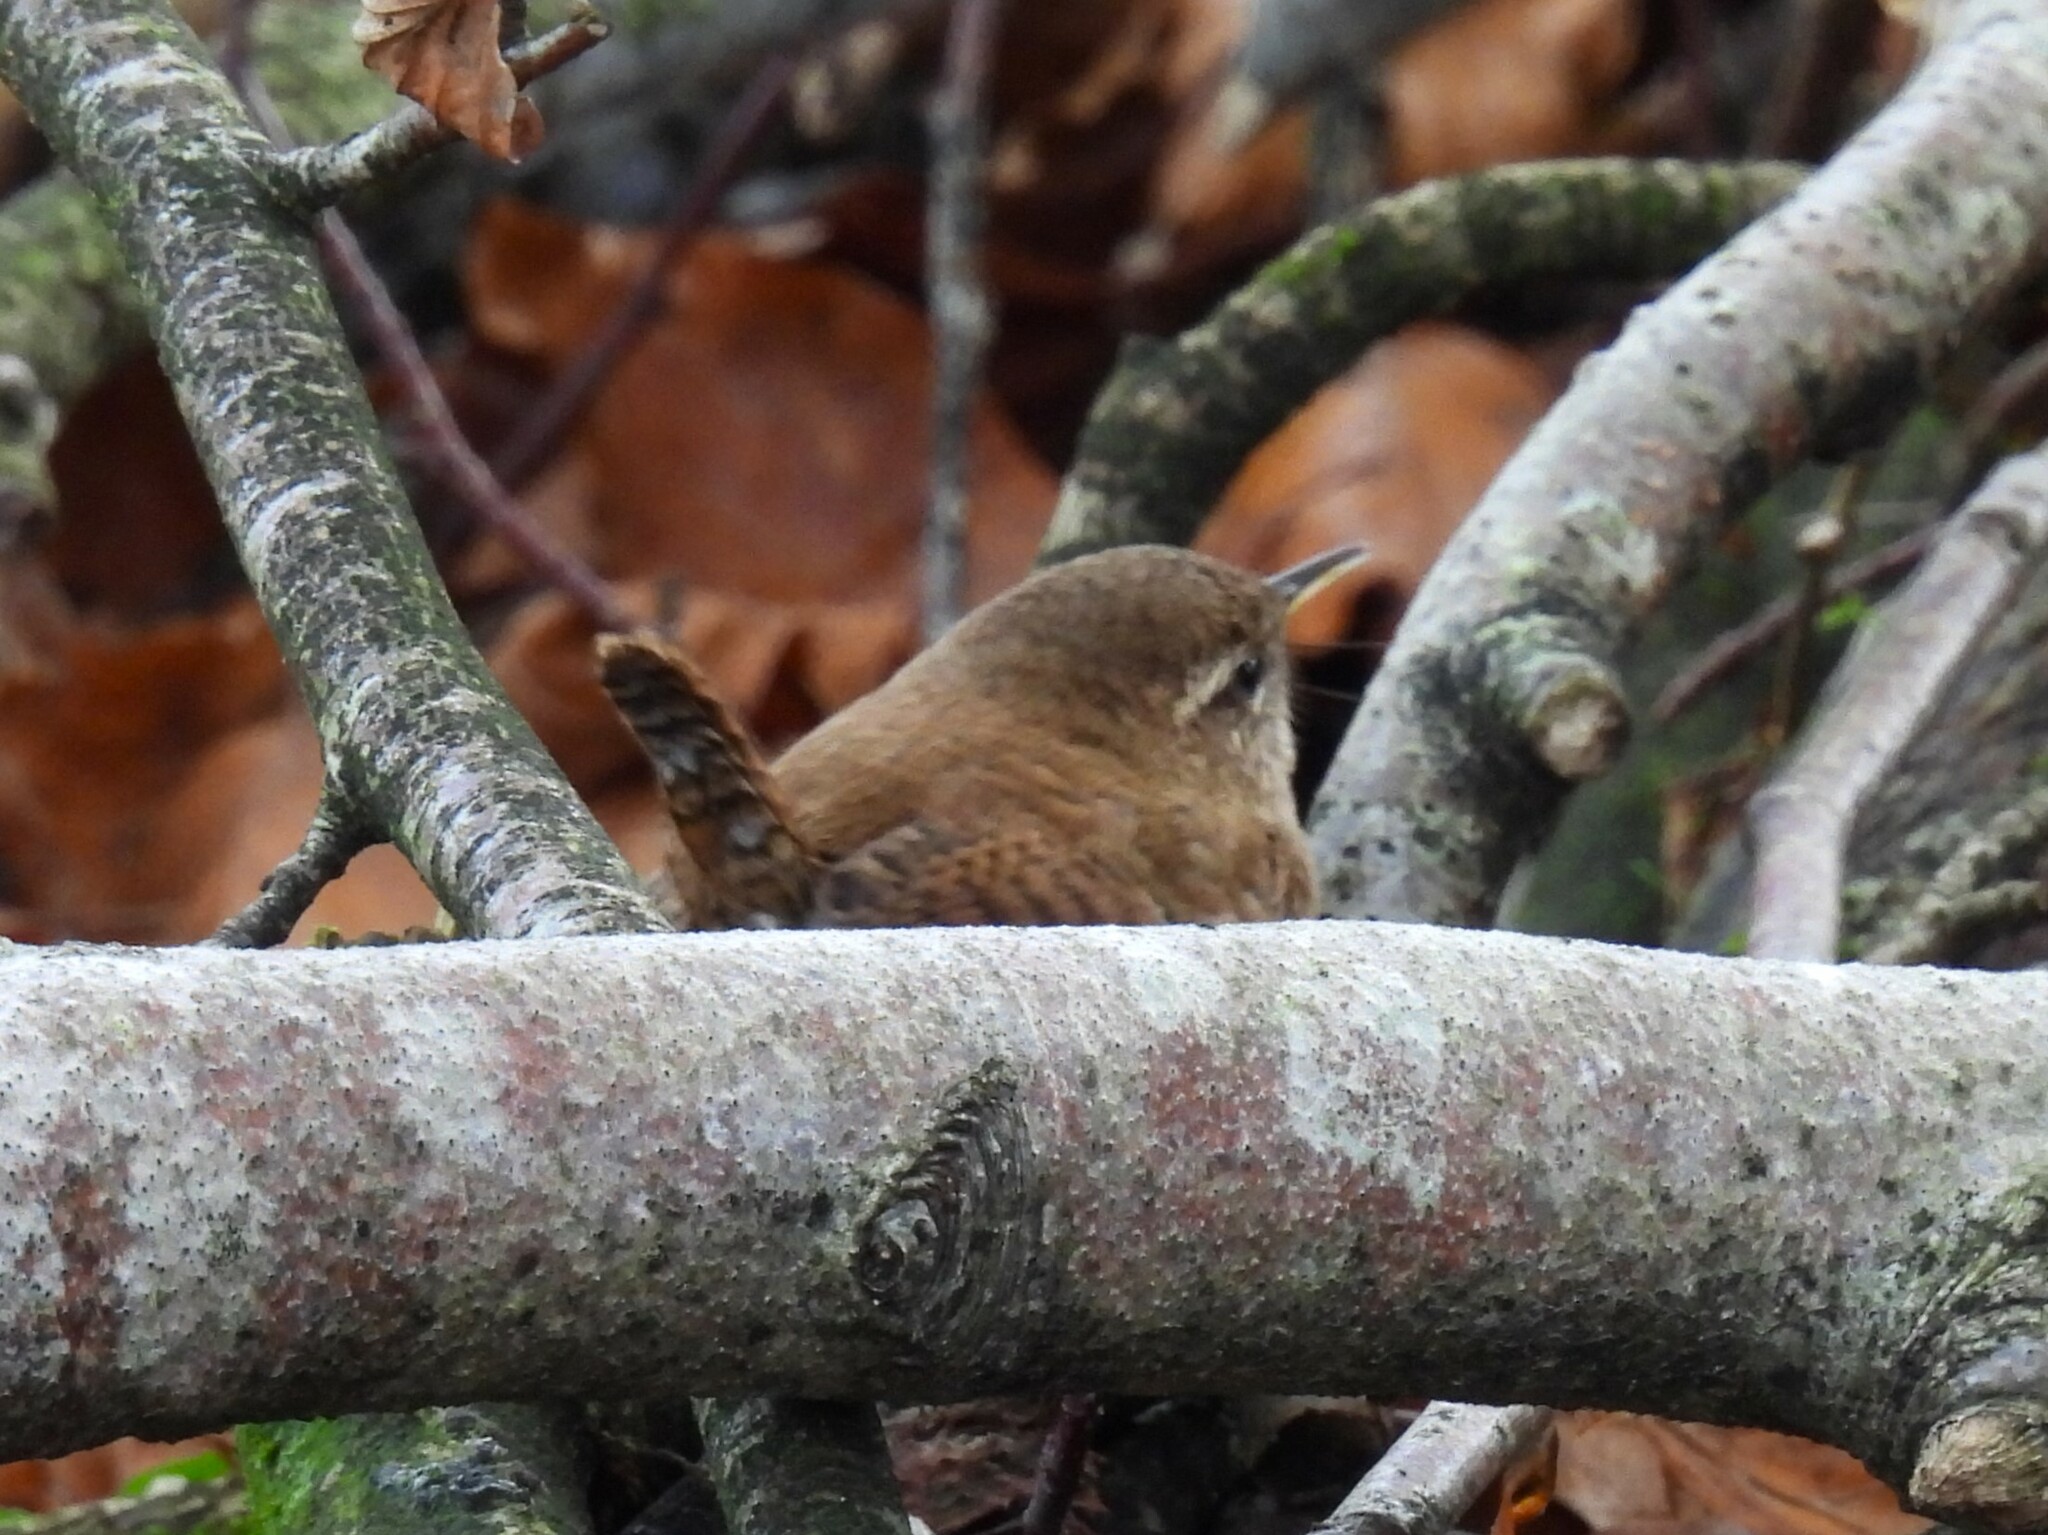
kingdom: Animalia
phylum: Chordata
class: Aves
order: Passeriformes
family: Troglodytidae
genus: Troglodytes
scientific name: Troglodytes troglodytes
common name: Eurasian wren
